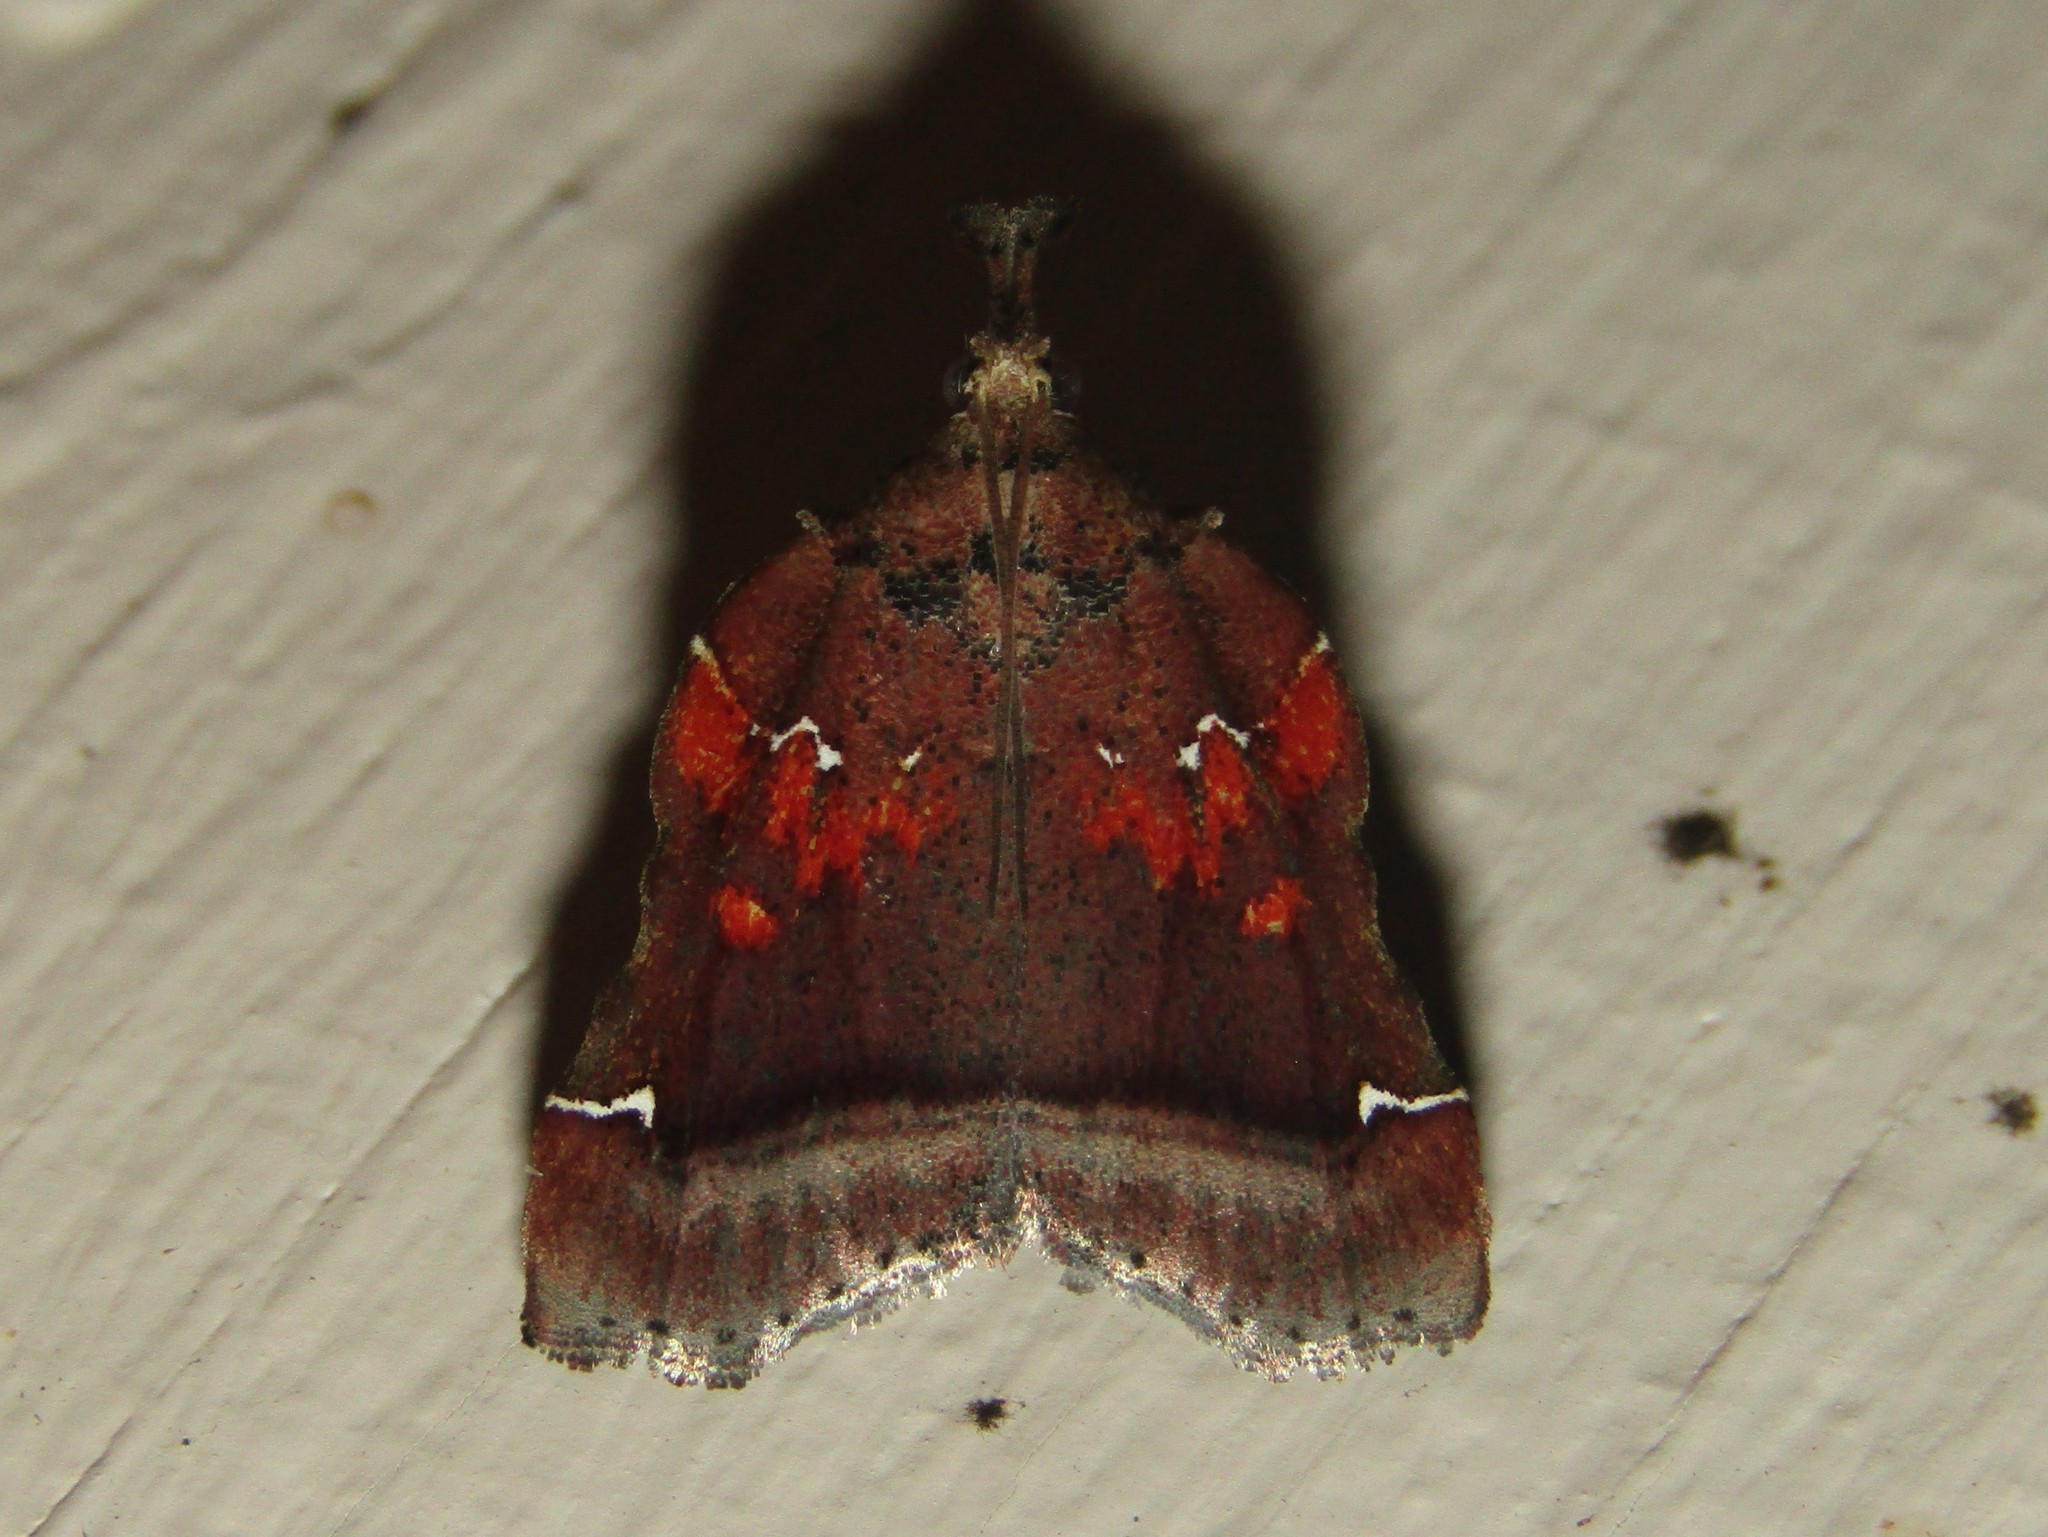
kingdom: Animalia
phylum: Arthropoda
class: Insecta
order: Lepidoptera
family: Pyralidae
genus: Clydonopteron
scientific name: Clydonopteron sacculana
